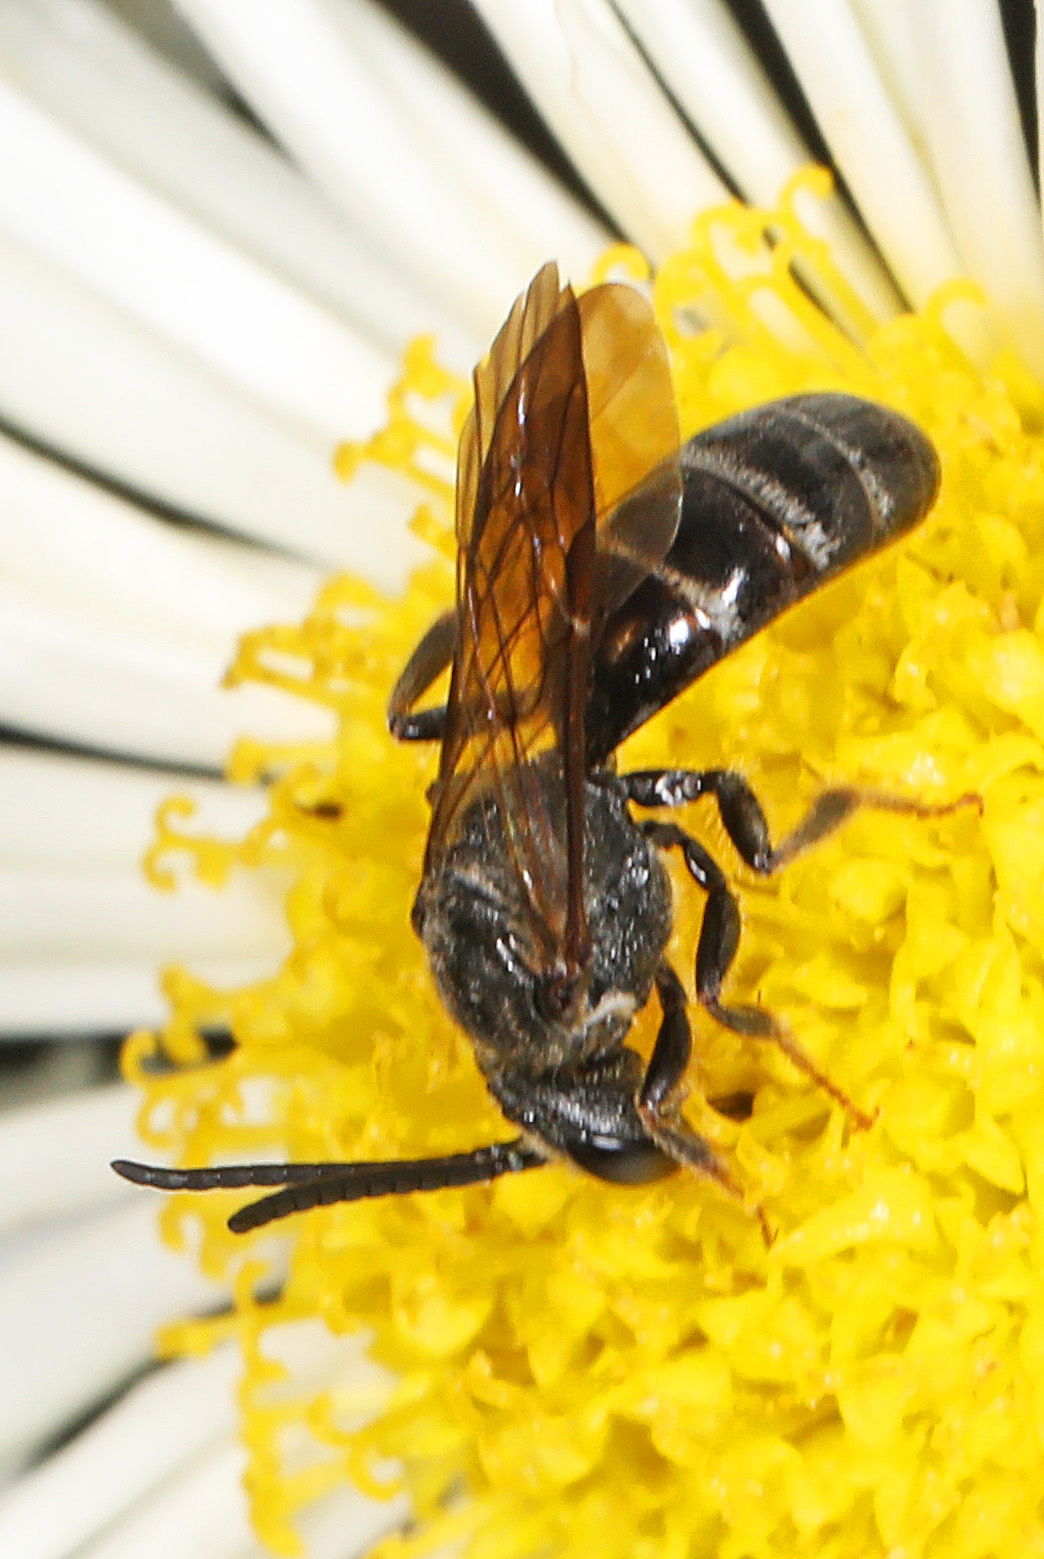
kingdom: Animalia
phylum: Arthropoda
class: Insecta
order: Hymenoptera
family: Halictidae
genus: Lasioglossum
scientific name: Lasioglossum fuscipenne
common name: Brown-winged sweat bee
